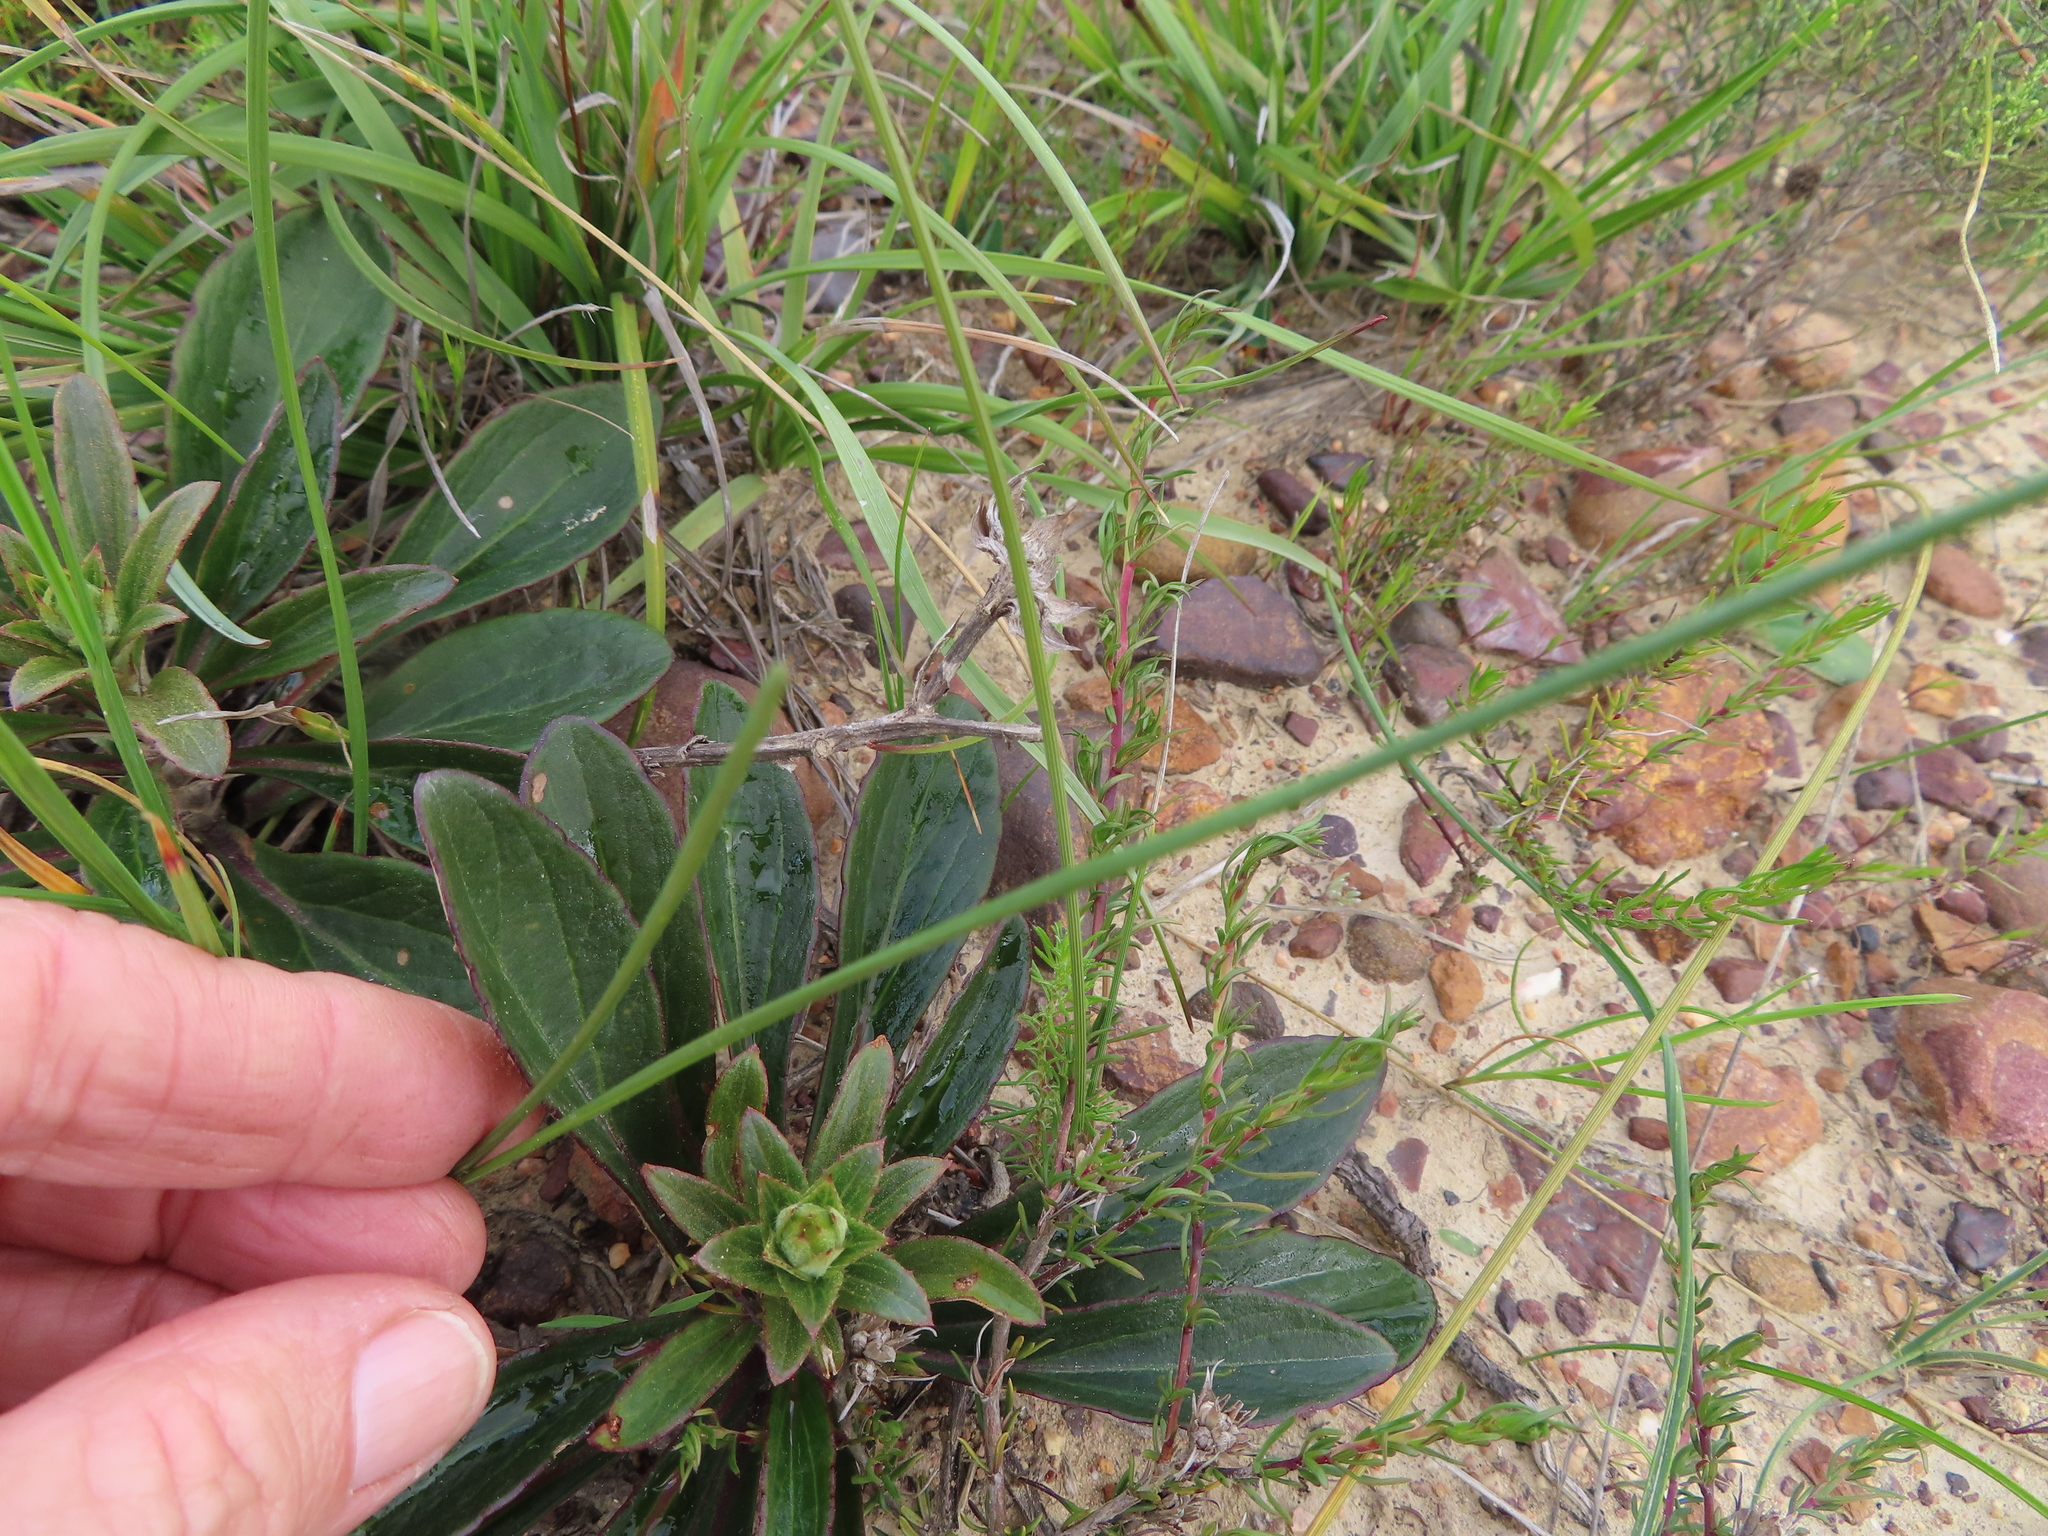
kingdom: Plantae
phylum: Tracheophyta
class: Liliopsida
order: Asparagales
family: Iridaceae
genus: Ixia
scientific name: Ixia flexuosa
